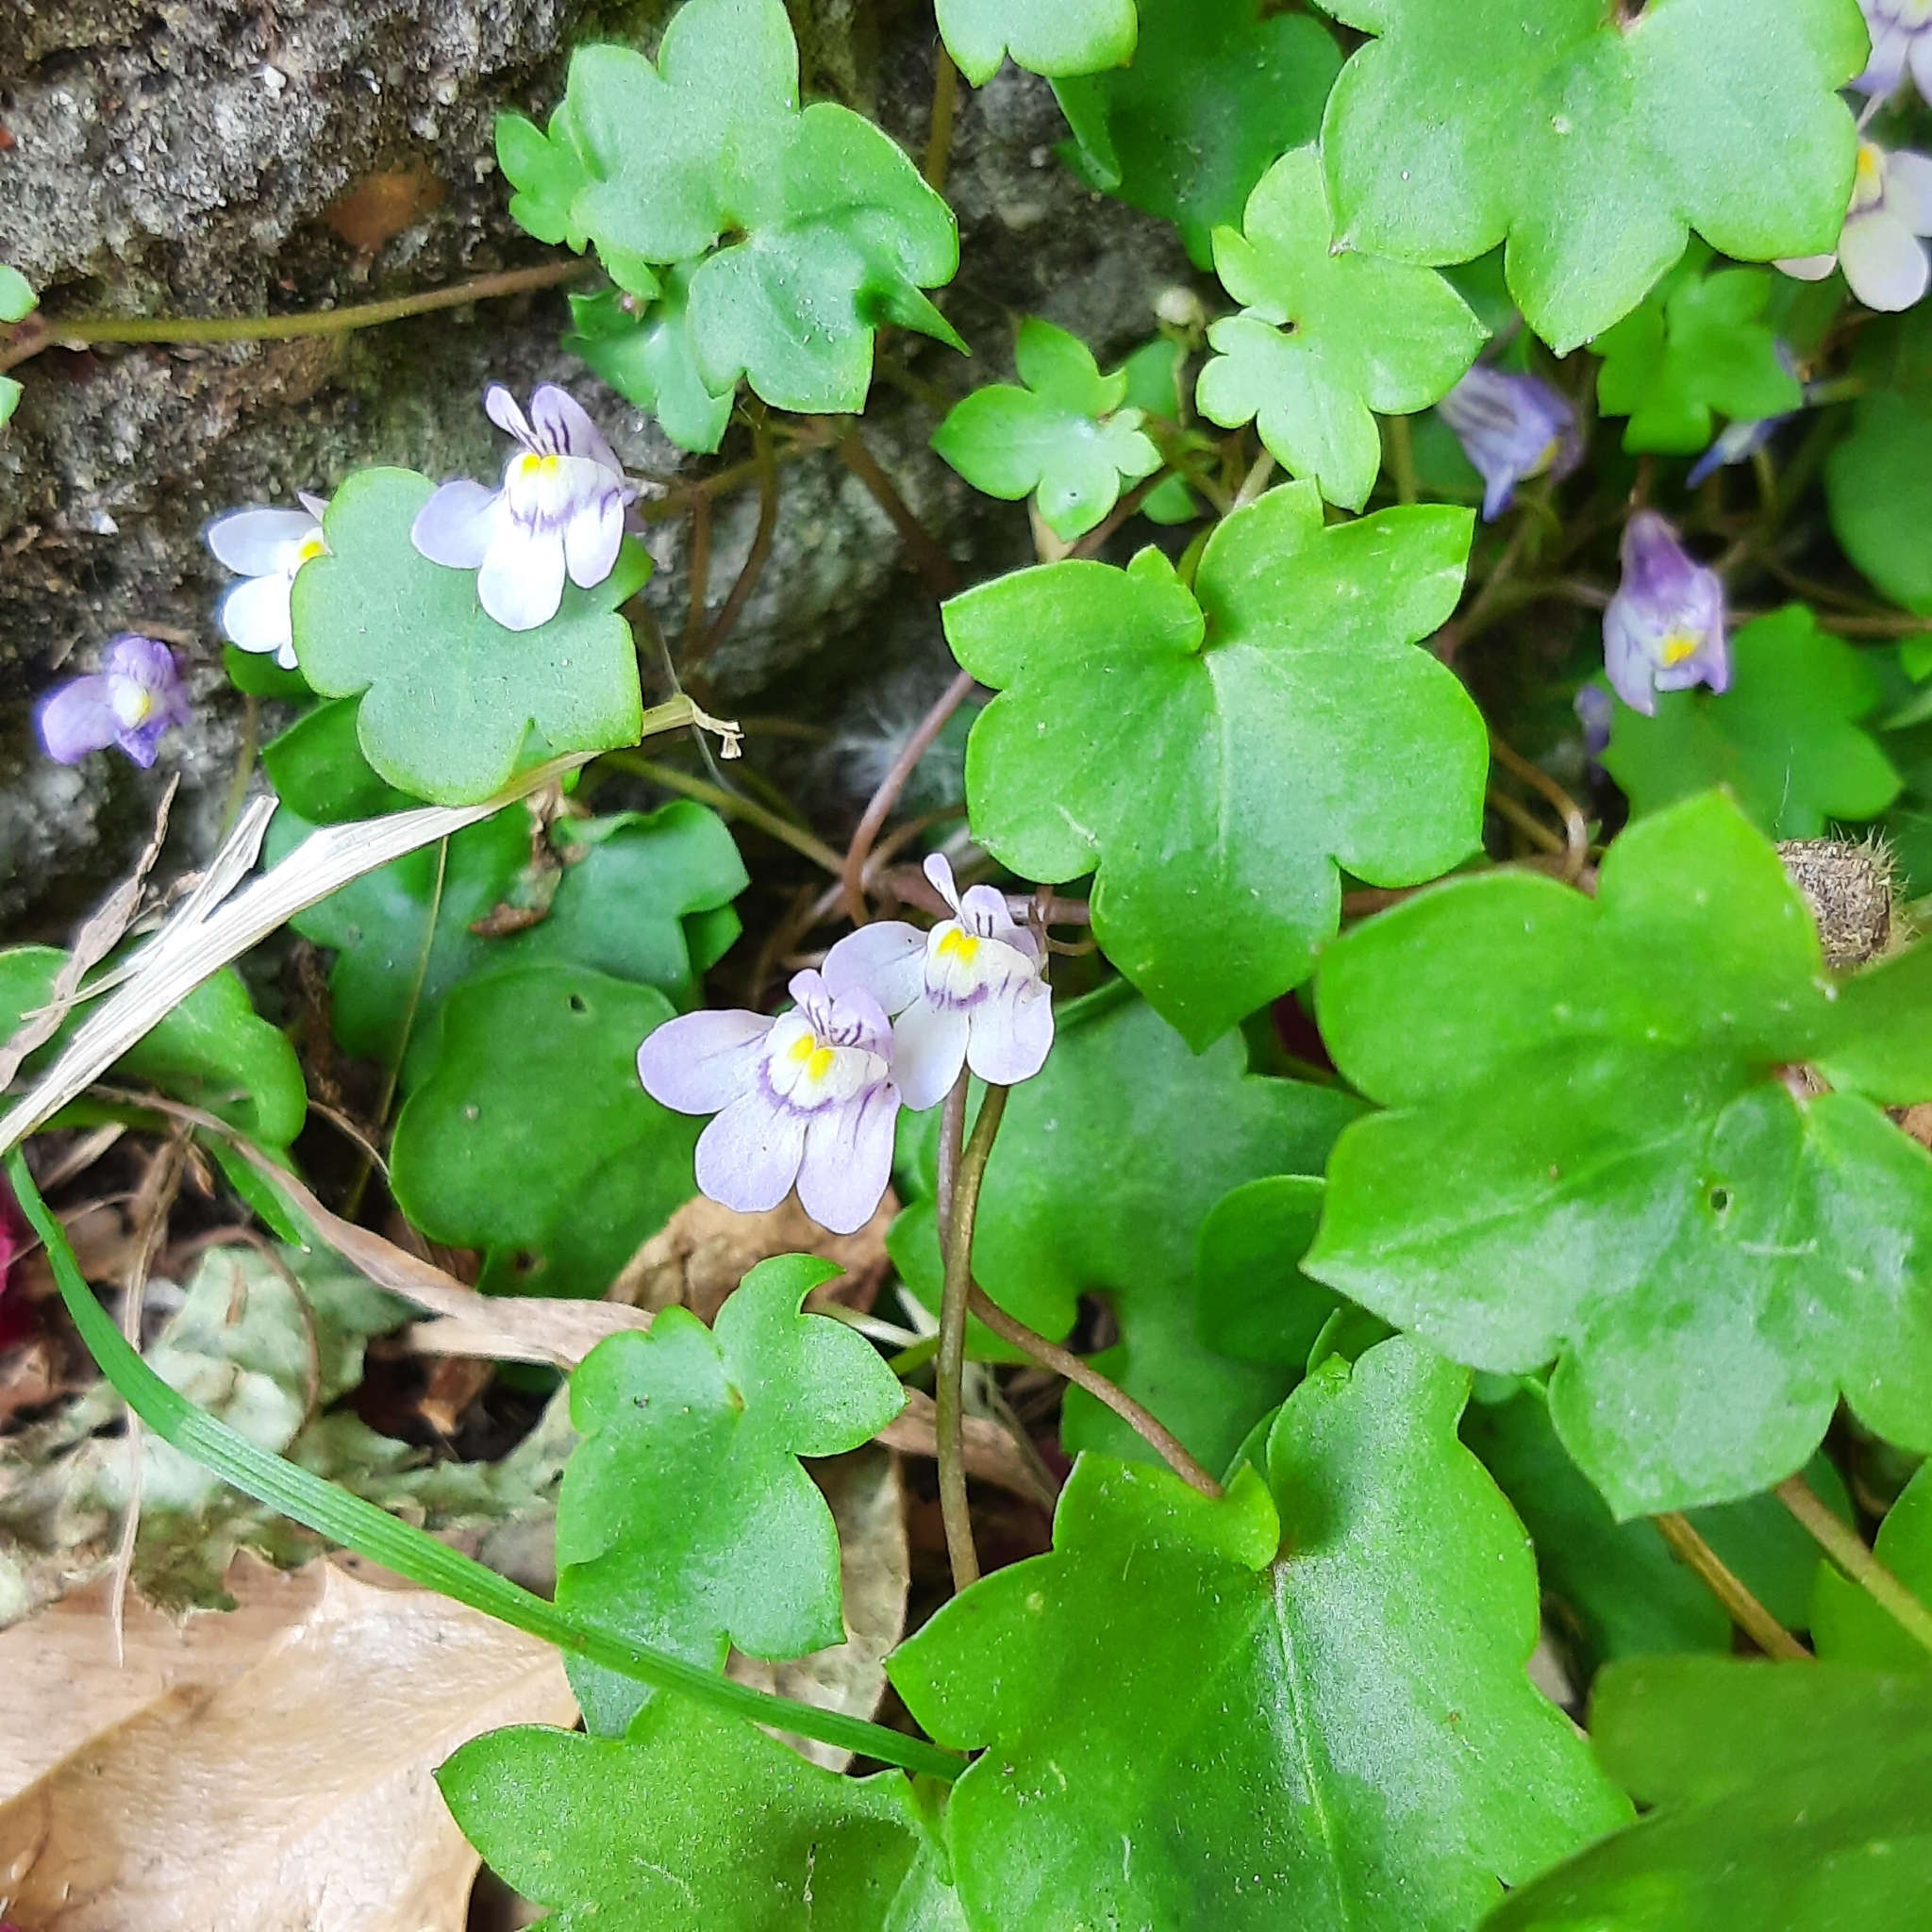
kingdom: Plantae
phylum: Tracheophyta
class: Magnoliopsida
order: Lamiales
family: Plantaginaceae
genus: Cymbalaria
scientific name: Cymbalaria muralis
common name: Ivy-leaved toadflax
